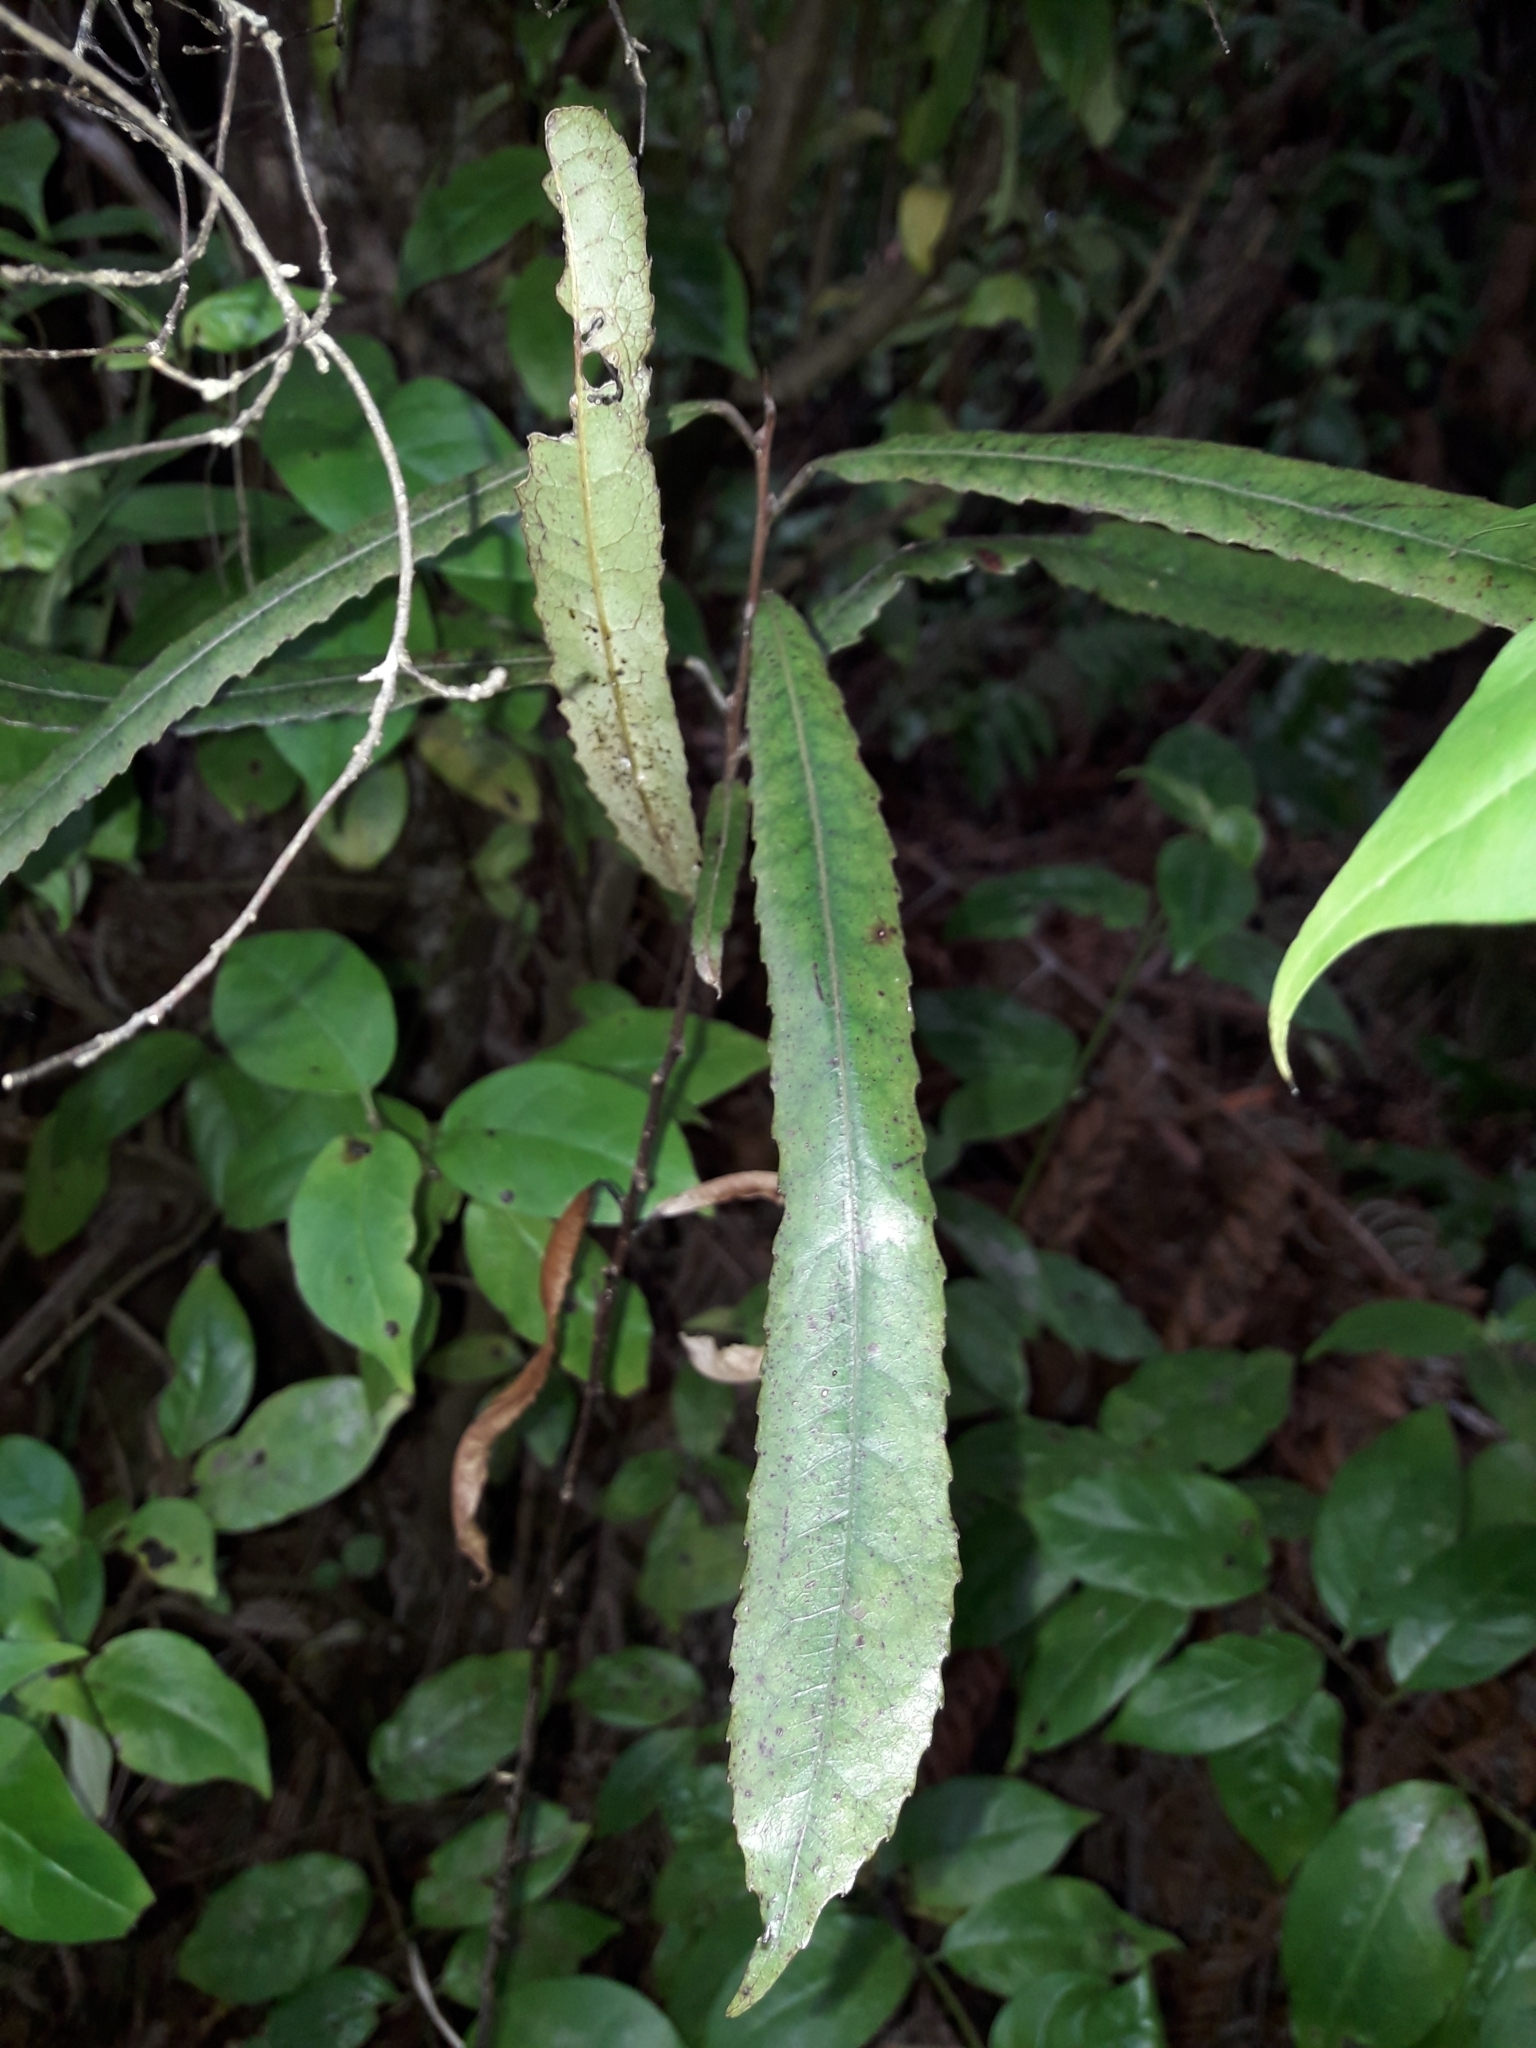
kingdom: Plantae
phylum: Tracheophyta
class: Magnoliopsida
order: Oxalidales
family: Elaeocarpaceae
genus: Elaeocarpus
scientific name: Elaeocarpus dentatus
